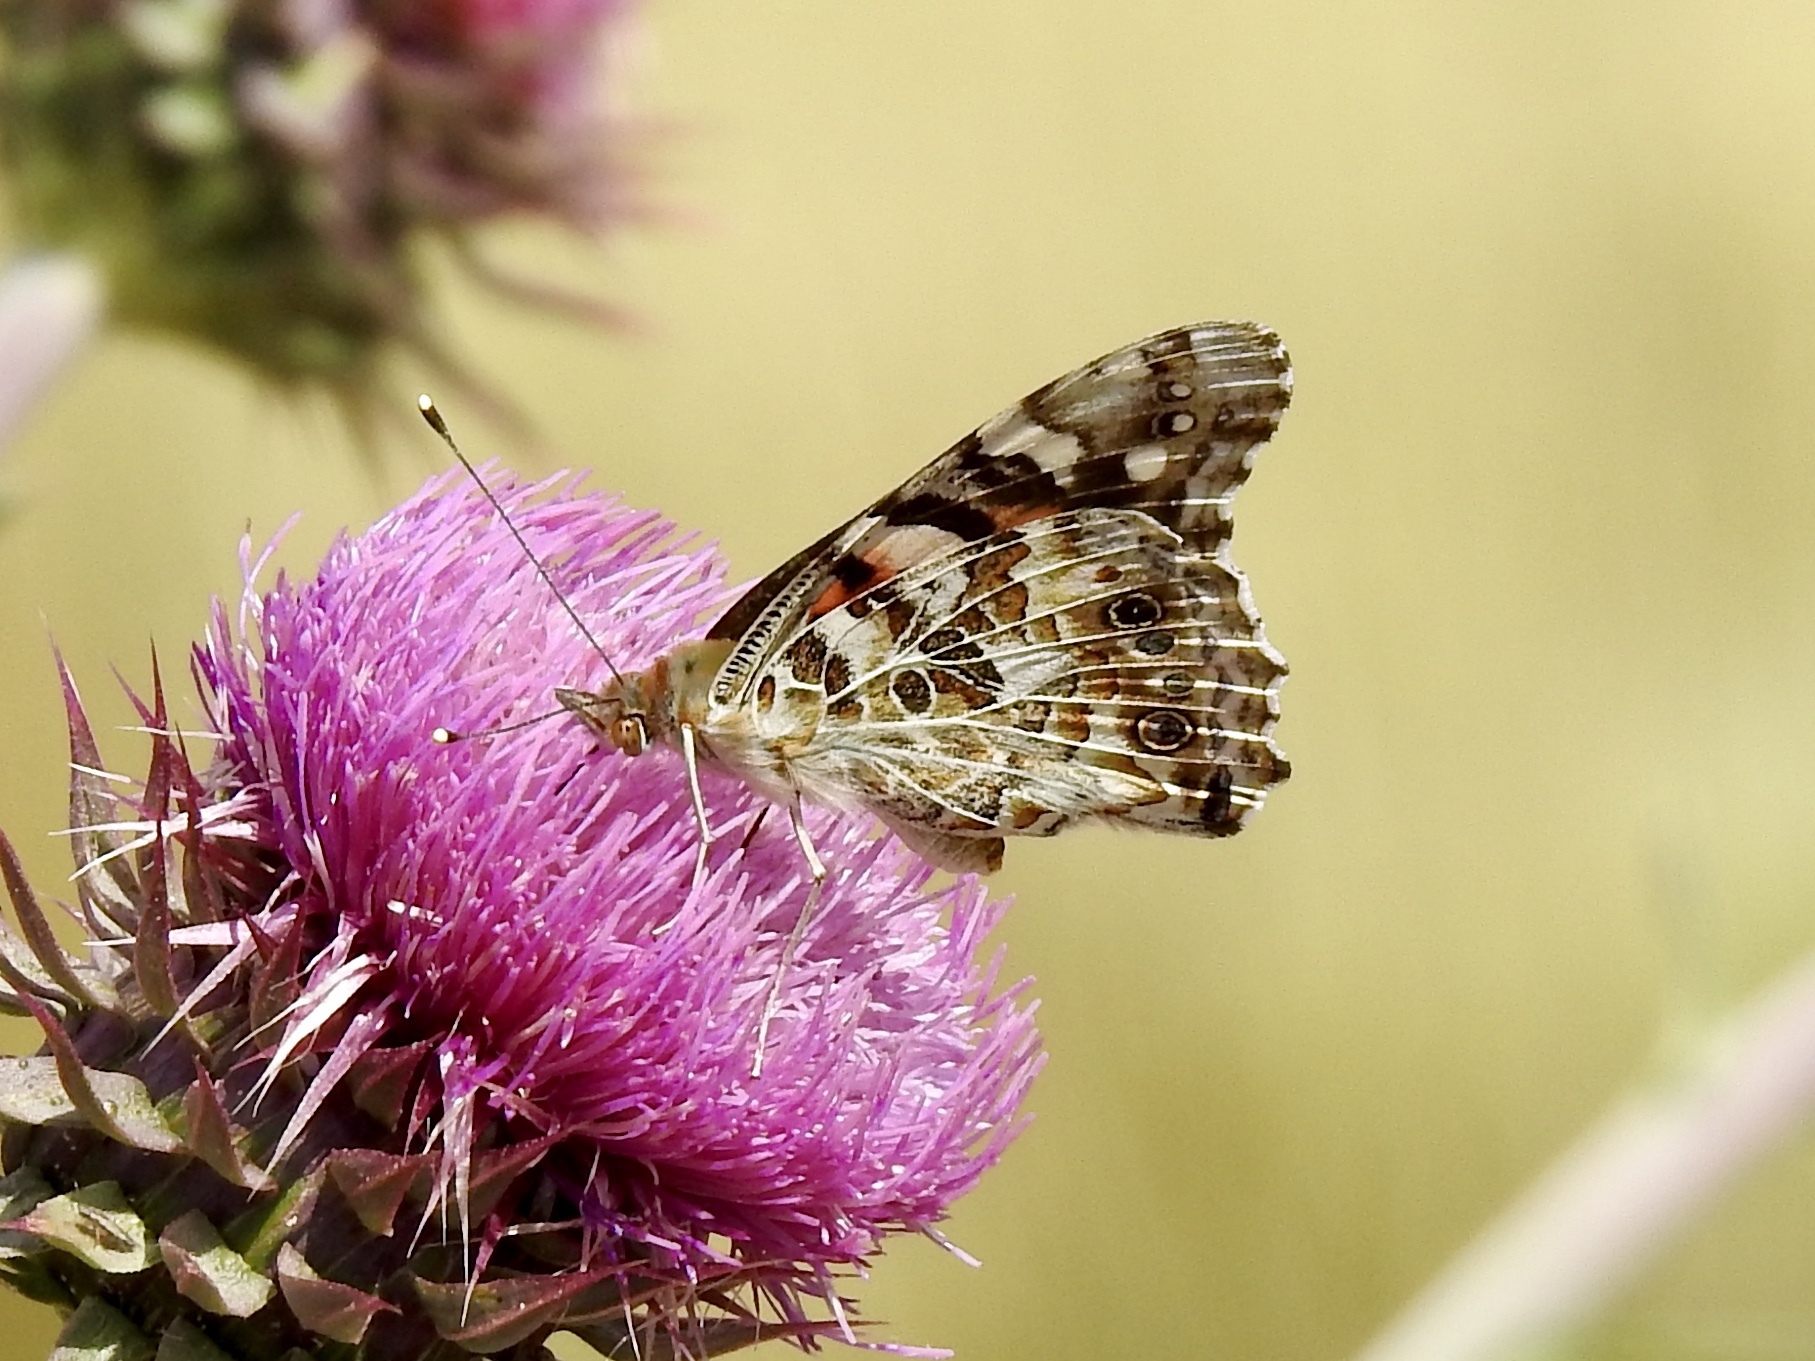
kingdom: Animalia
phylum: Arthropoda
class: Insecta
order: Lepidoptera
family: Nymphalidae
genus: Vanessa
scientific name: Vanessa cardui
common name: Painted lady
